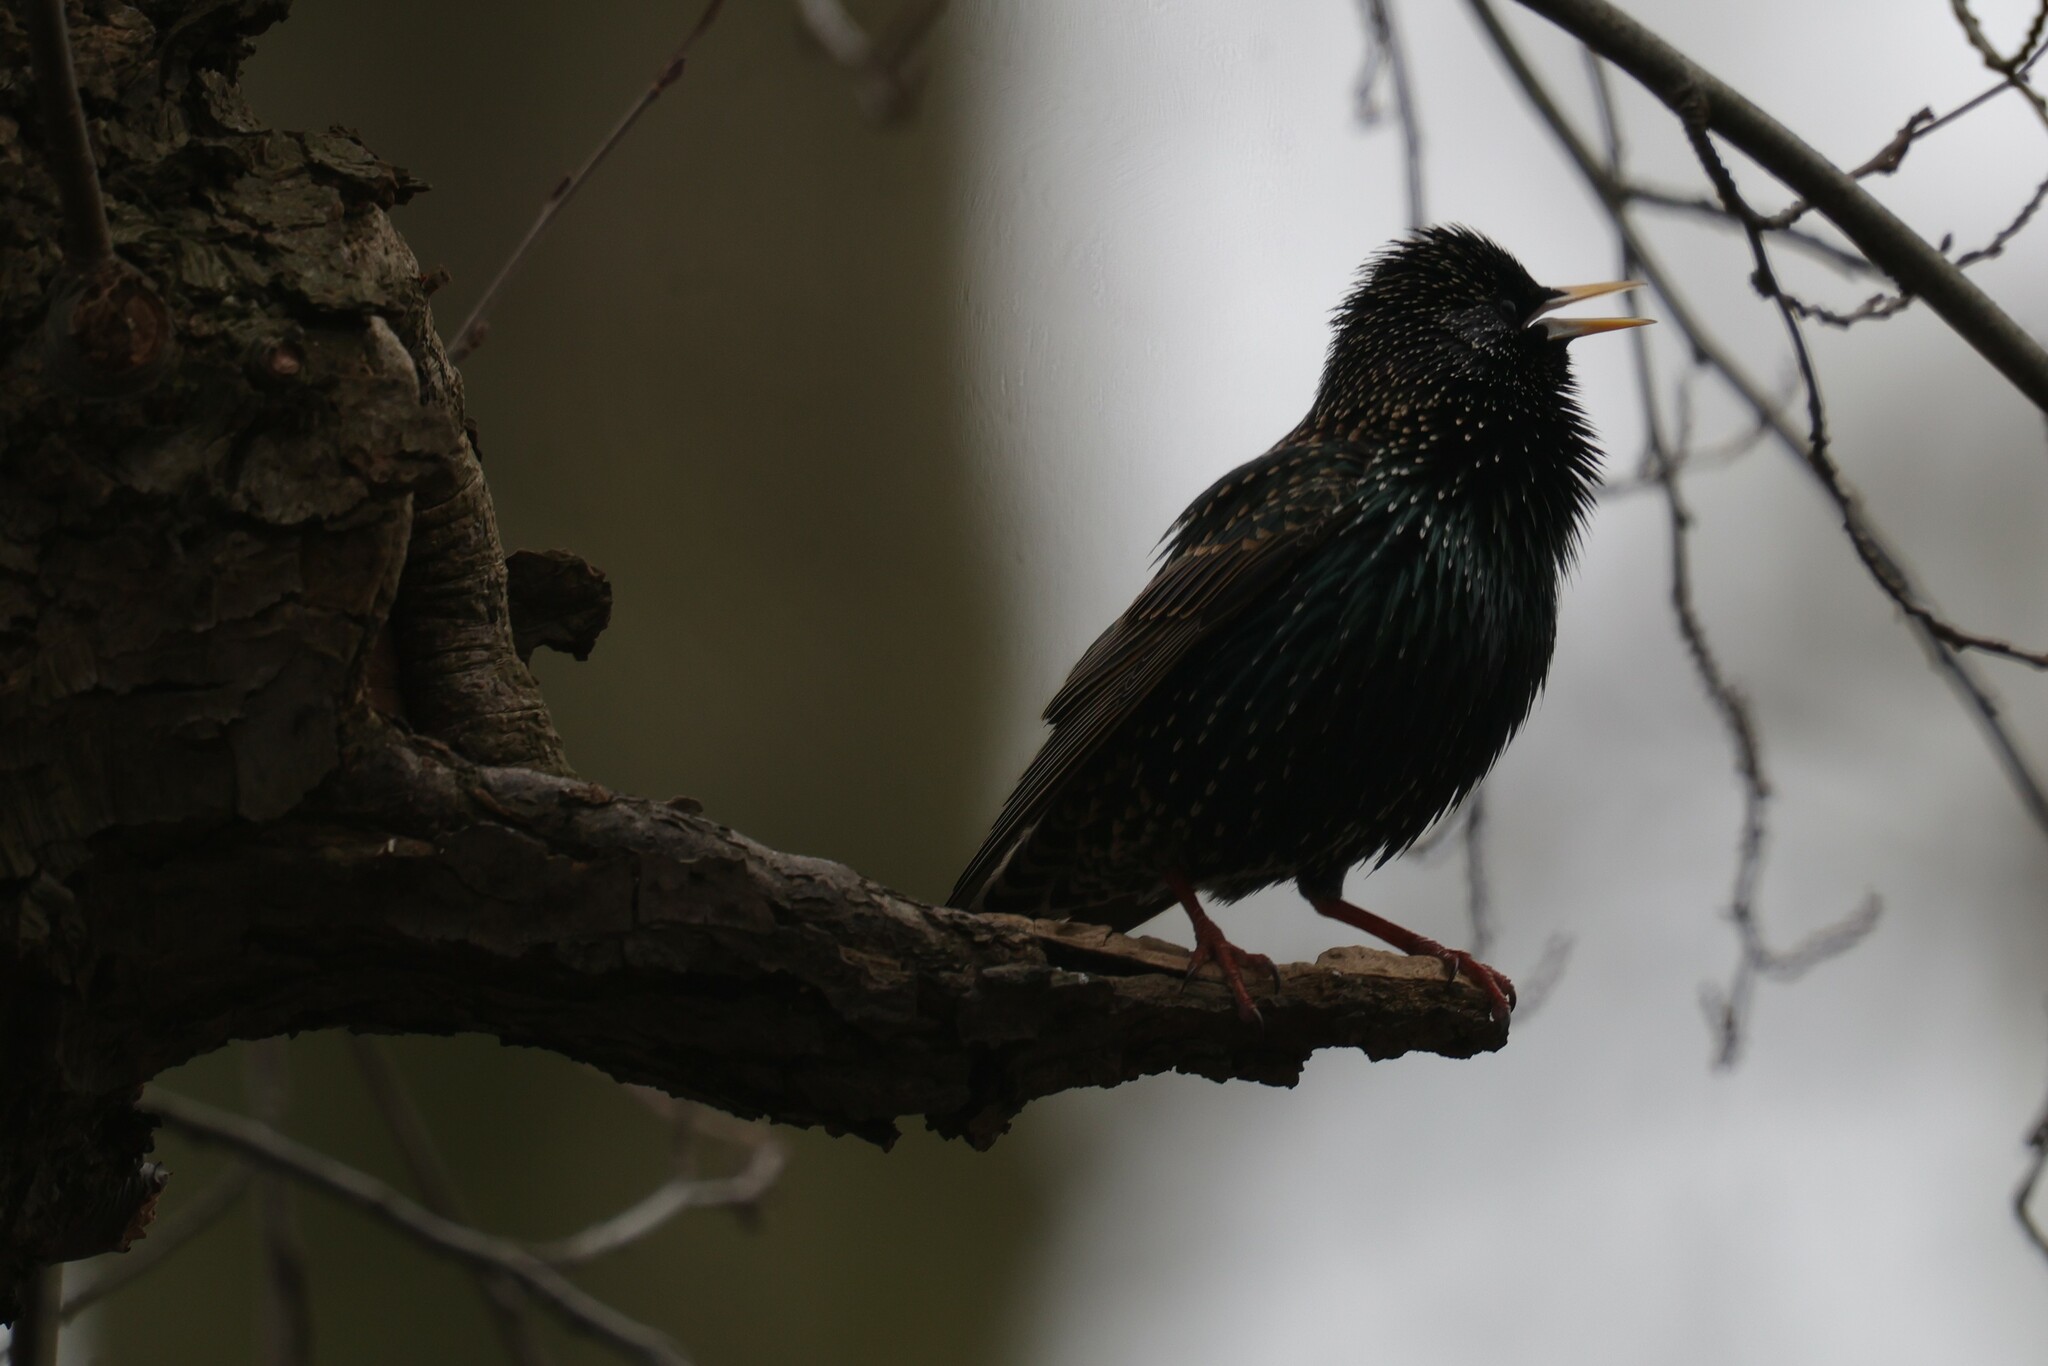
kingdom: Animalia
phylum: Chordata
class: Aves
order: Passeriformes
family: Sturnidae
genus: Sturnus
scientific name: Sturnus vulgaris
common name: Common starling
